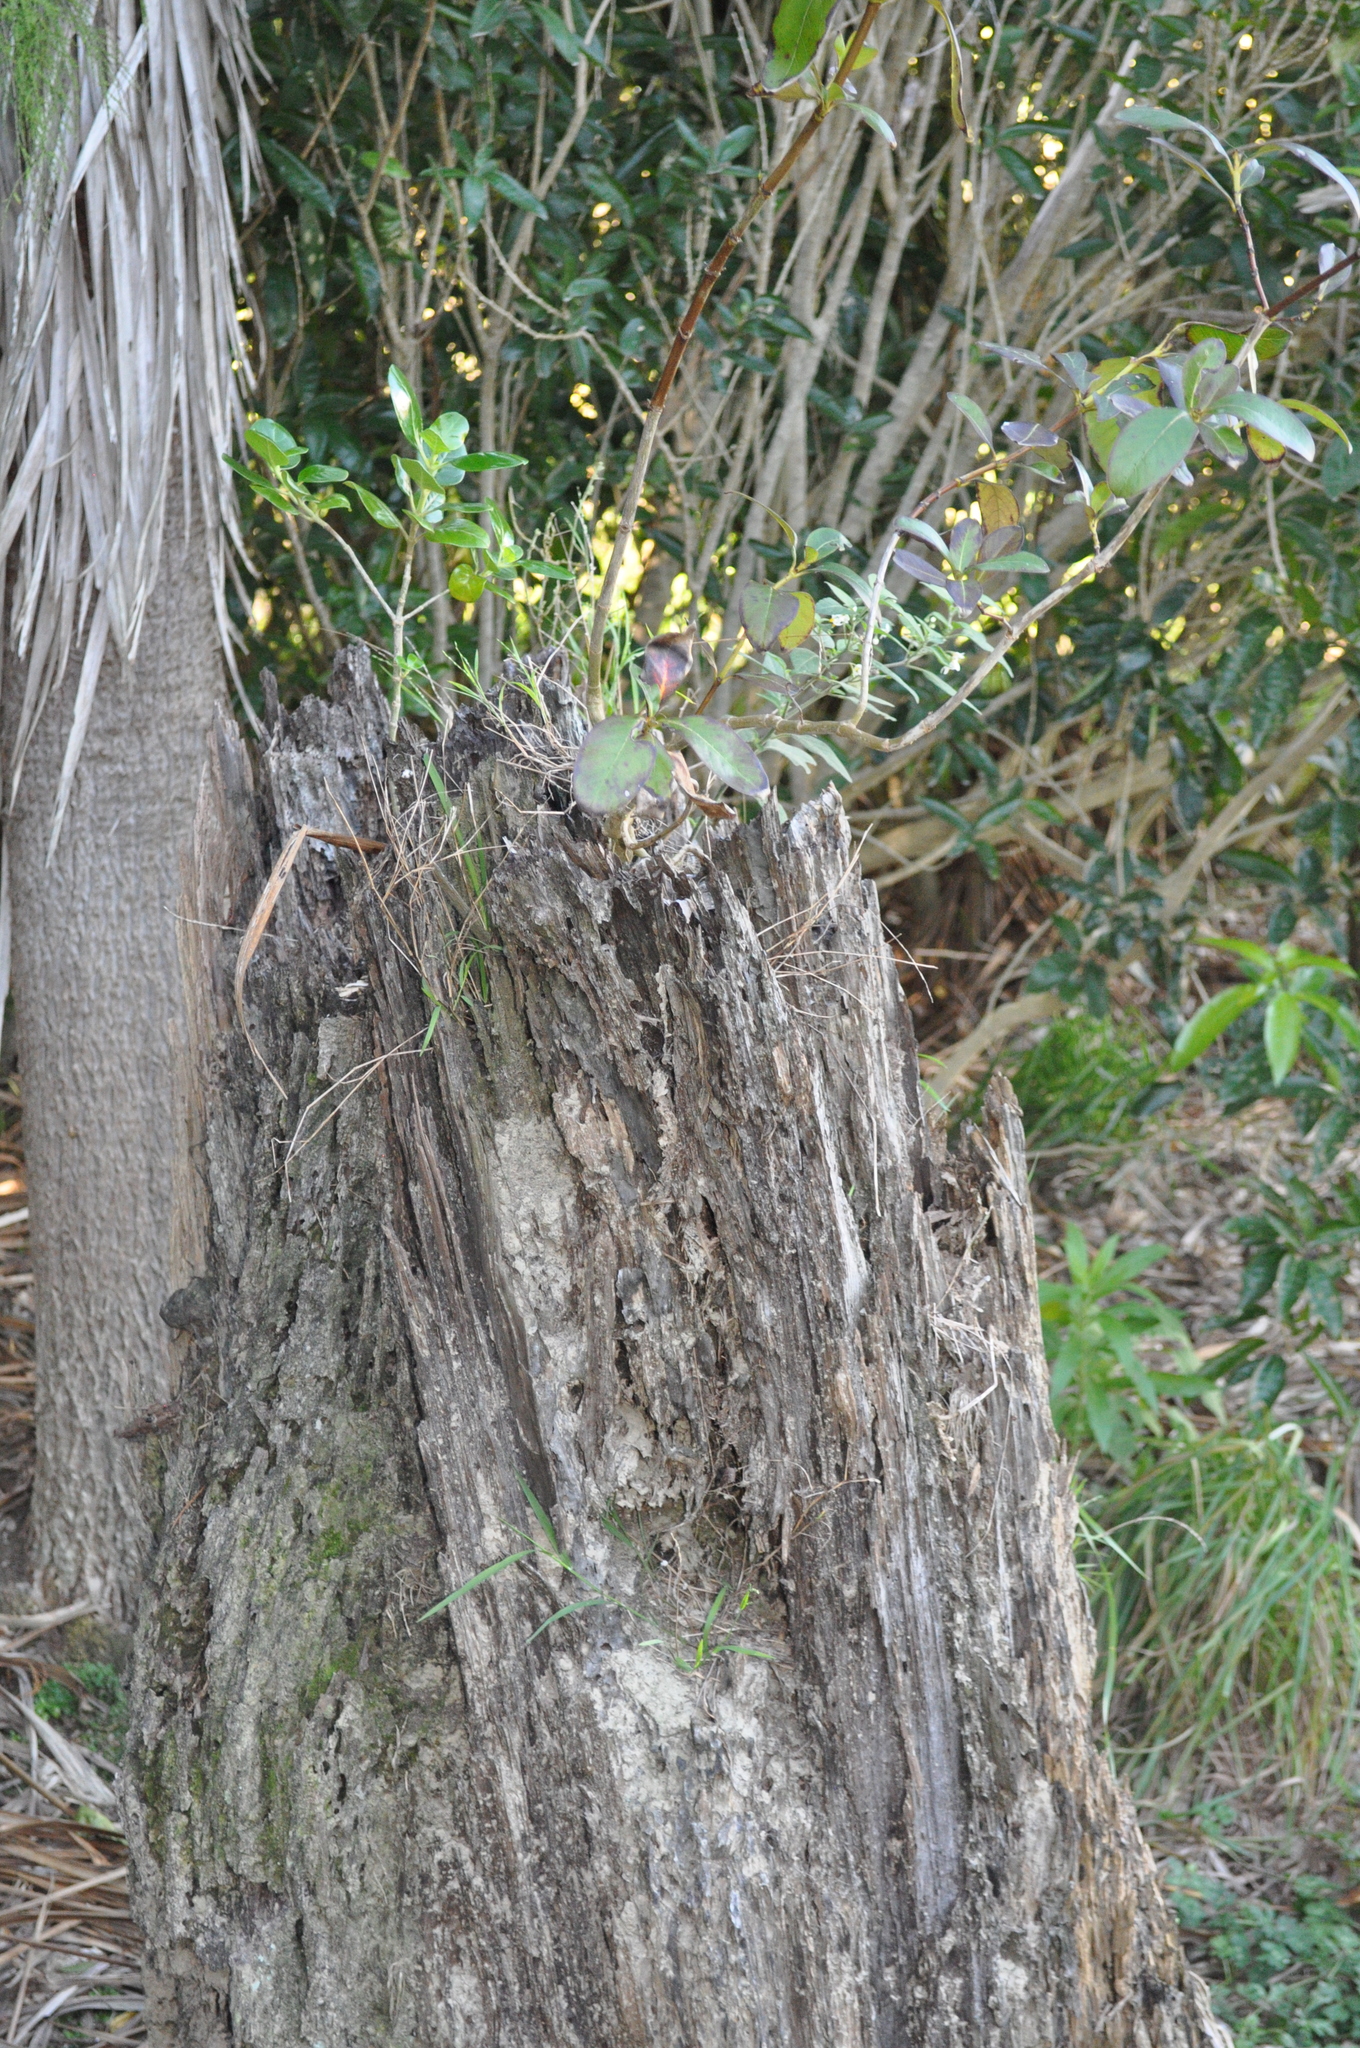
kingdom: Plantae
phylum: Tracheophyta
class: Magnoliopsida
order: Gentianales
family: Rubiaceae
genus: Coprosma
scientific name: Coprosma repens
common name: Tree bedstraw
